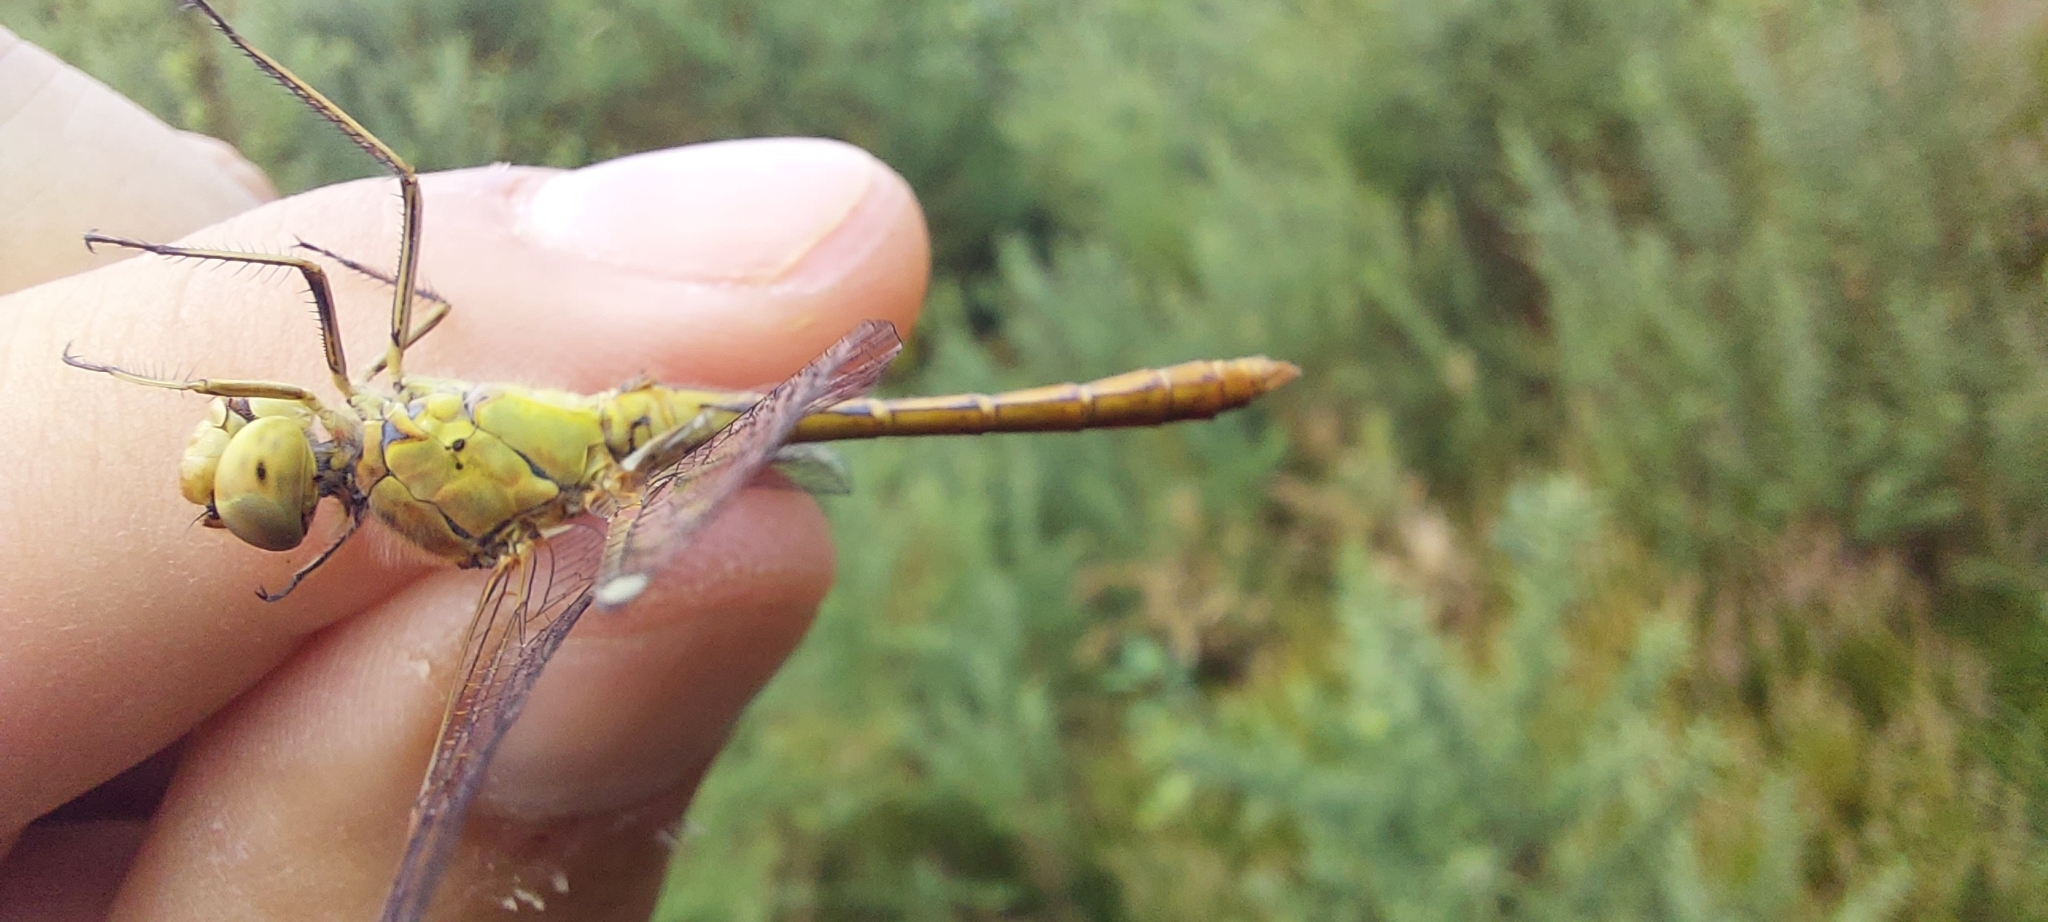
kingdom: Animalia
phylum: Arthropoda
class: Insecta
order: Odonata
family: Libellulidae
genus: Sympetrum
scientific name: Sympetrum meridionale
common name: Southern darter
